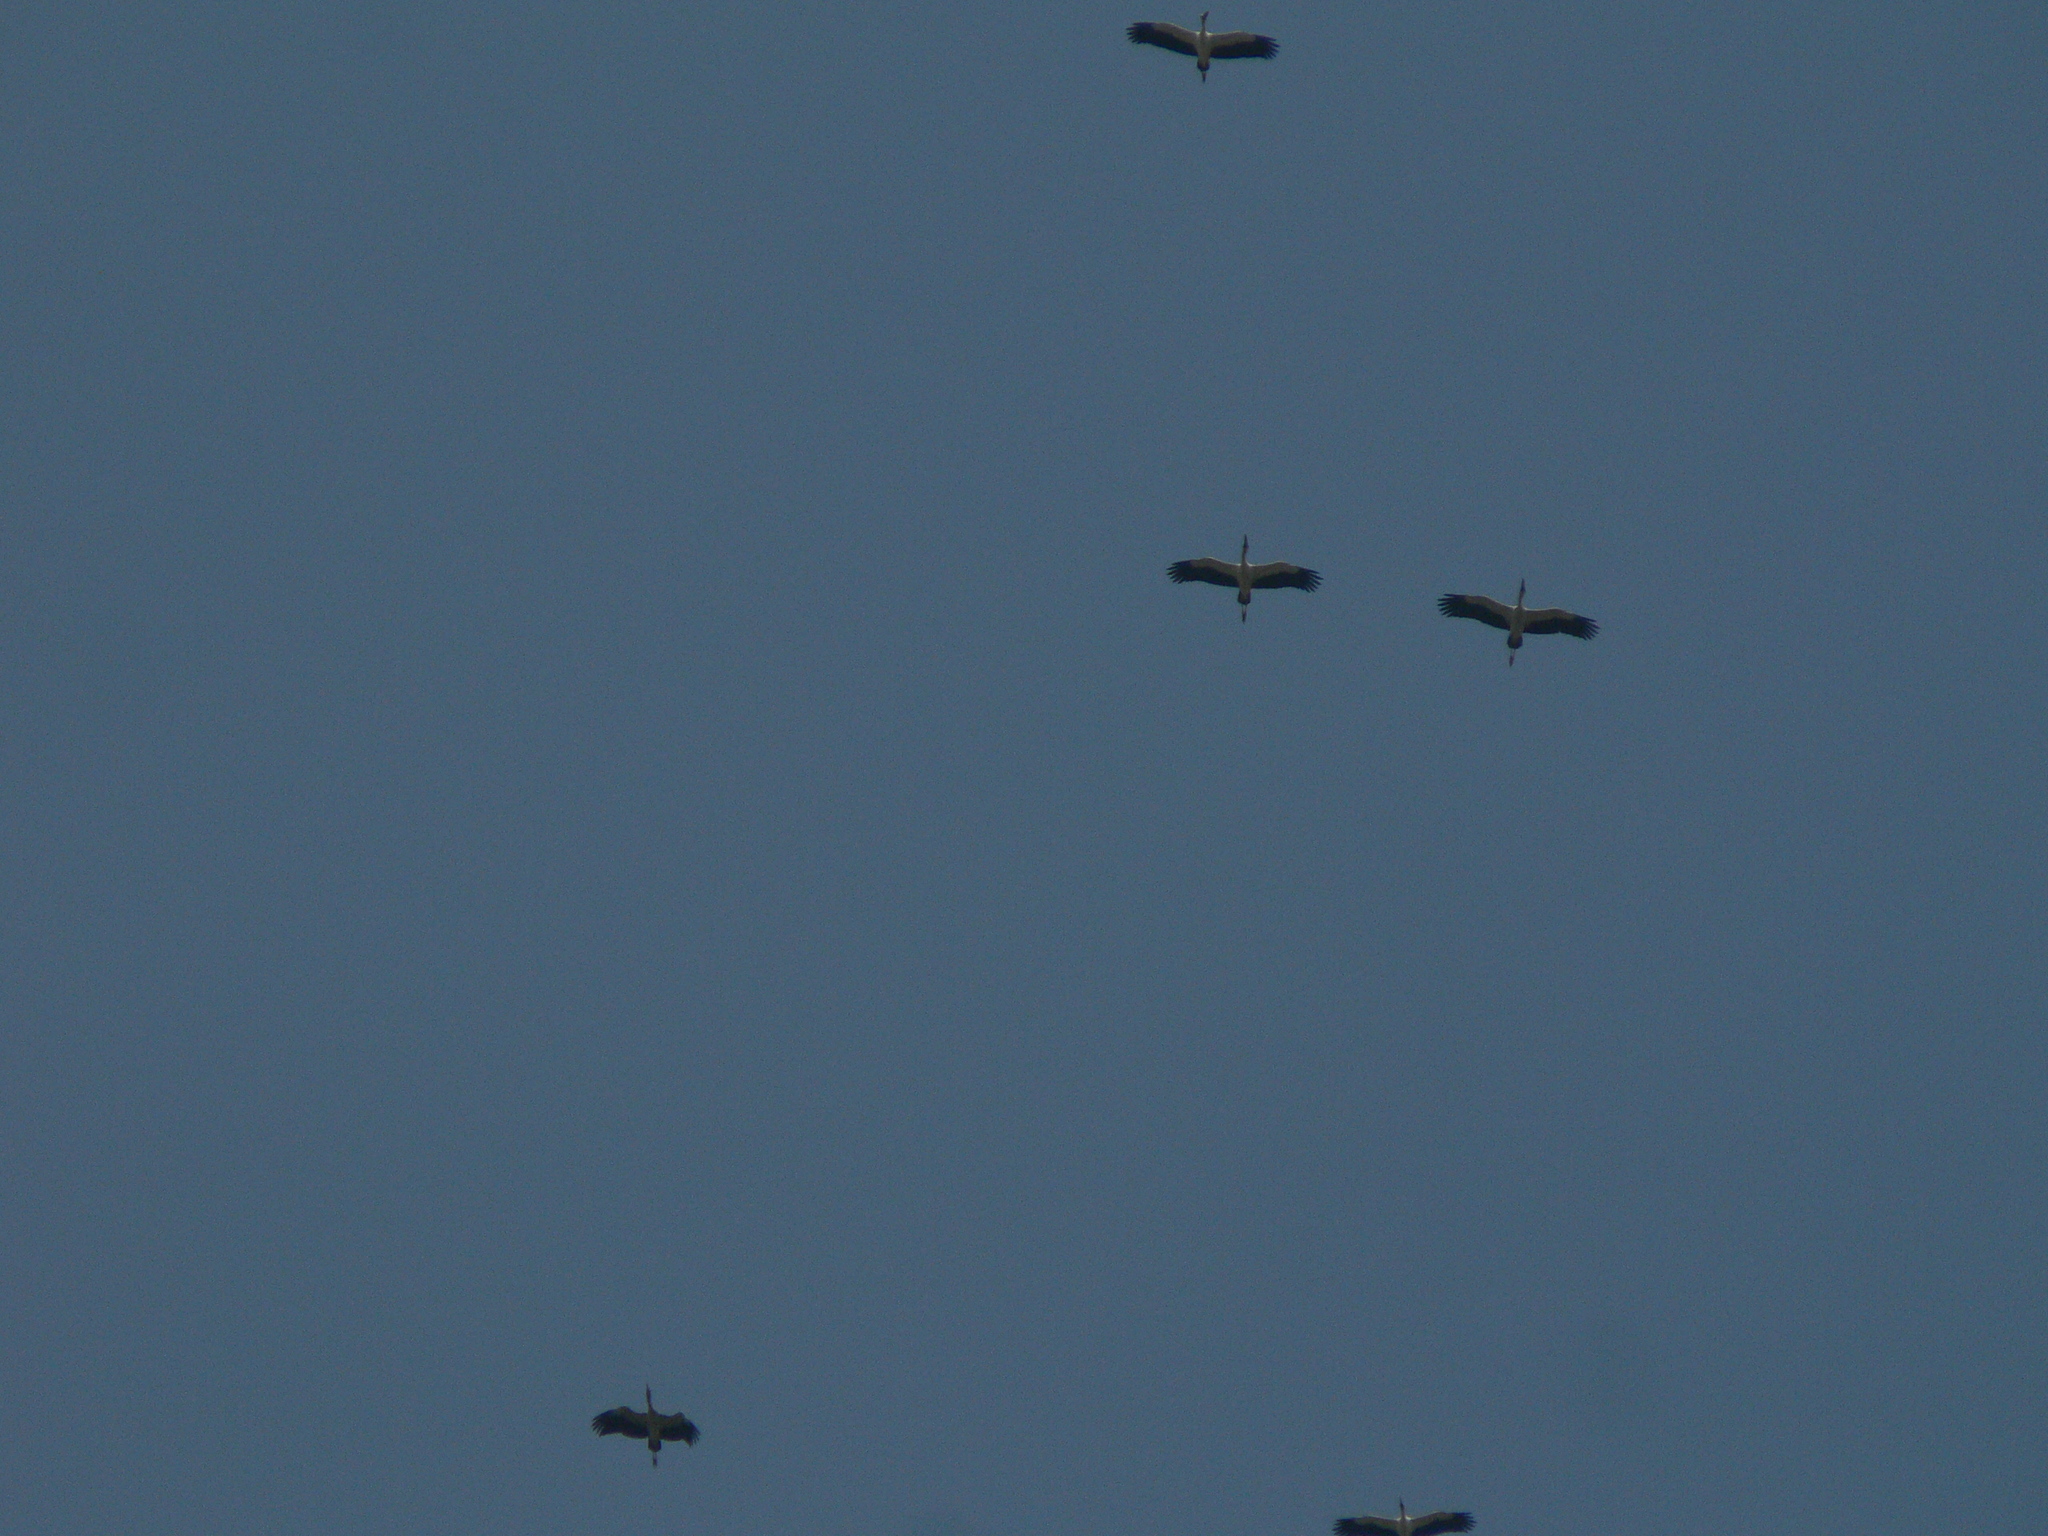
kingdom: Animalia
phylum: Chordata
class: Aves
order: Ciconiiformes
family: Ciconiidae
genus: Anastomus
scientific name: Anastomus oscitans
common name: Asian openbill
